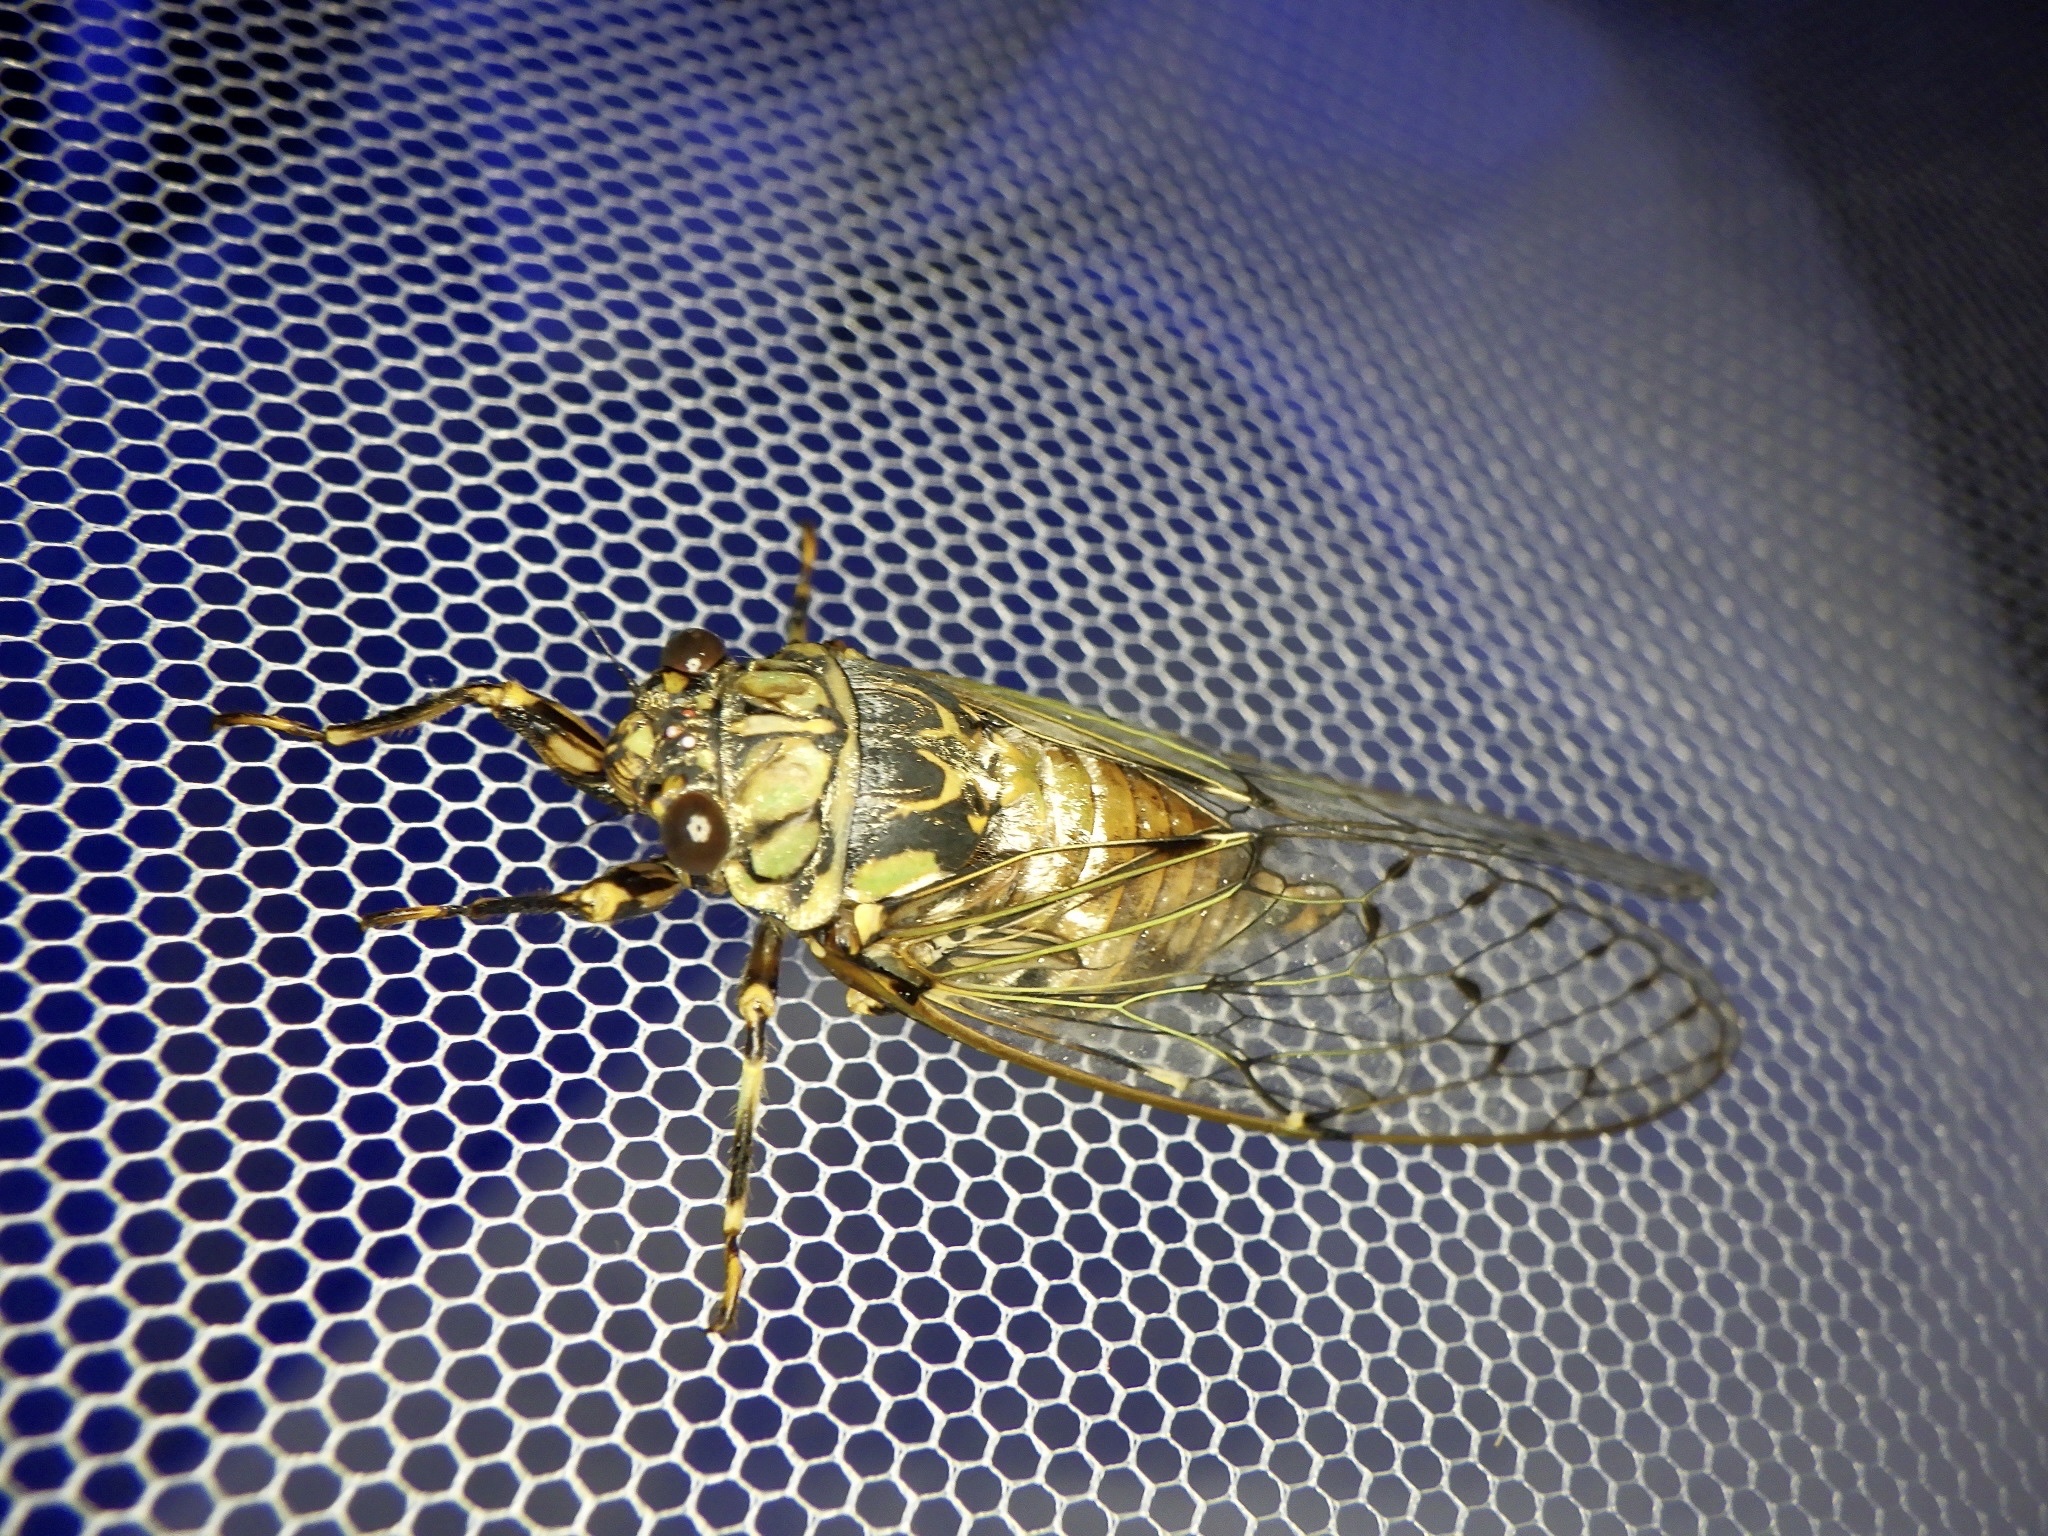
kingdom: Animalia
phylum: Arthropoda
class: Insecta
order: Hemiptera
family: Cicadidae
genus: Yezoterpnosia
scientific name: Yezoterpnosia nigricosta
